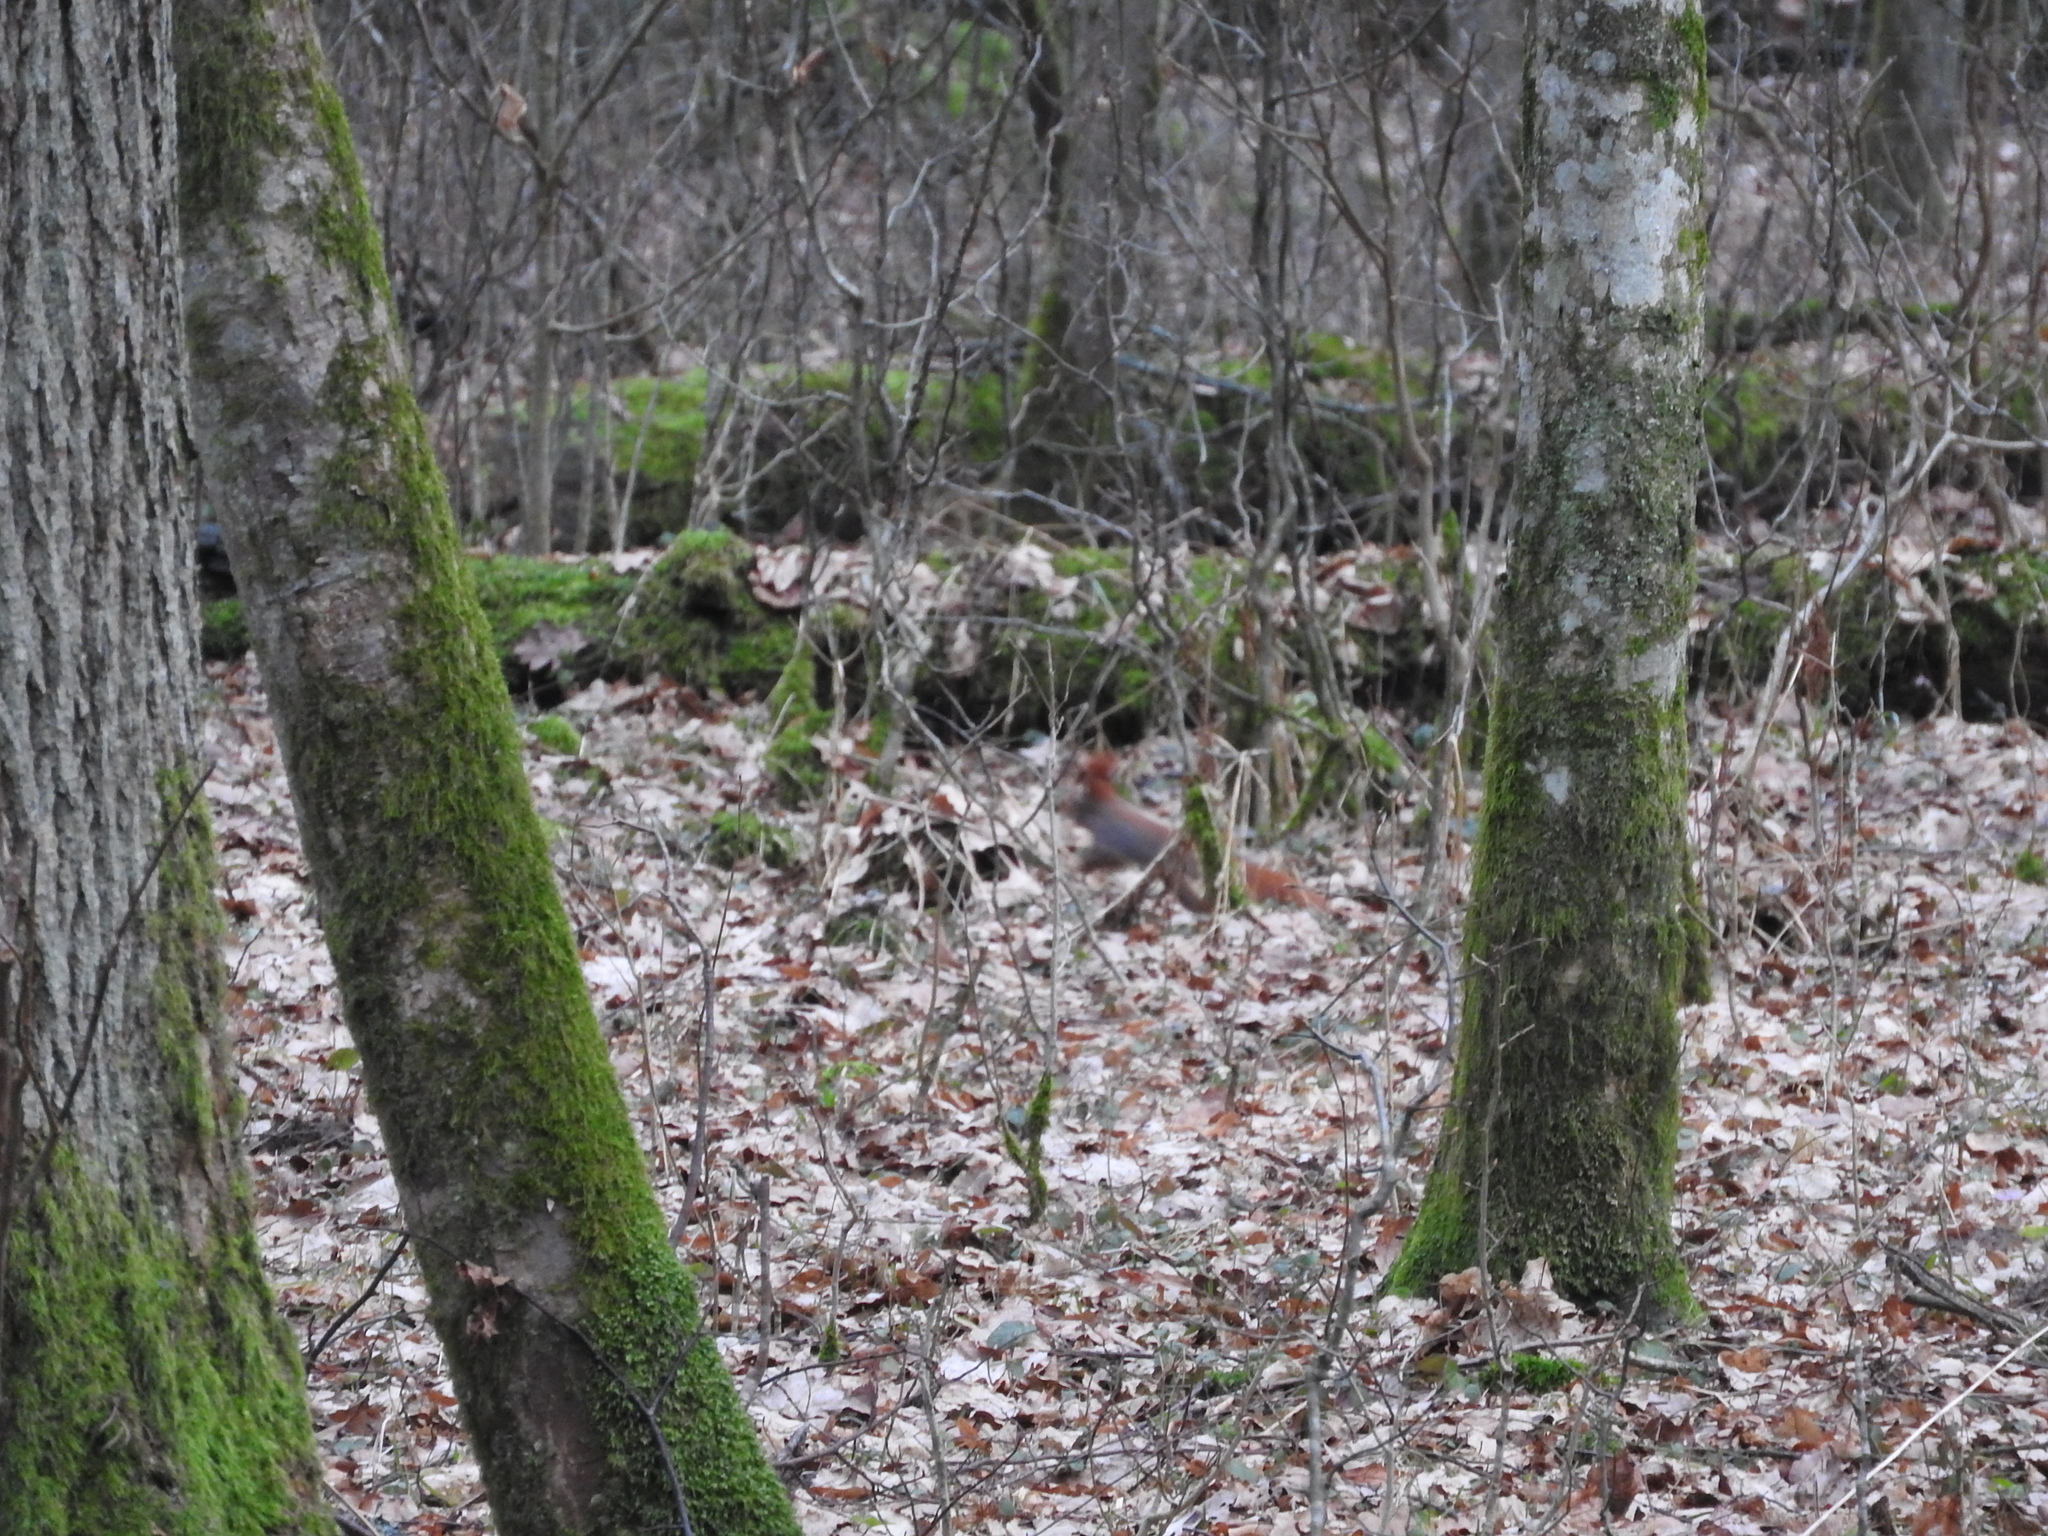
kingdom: Animalia
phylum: Chordata
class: Mammalia
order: Rodentia
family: Sciuridae
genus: Sciurus
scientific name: Sciurus vulgaris
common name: Eurasian red squirrel
